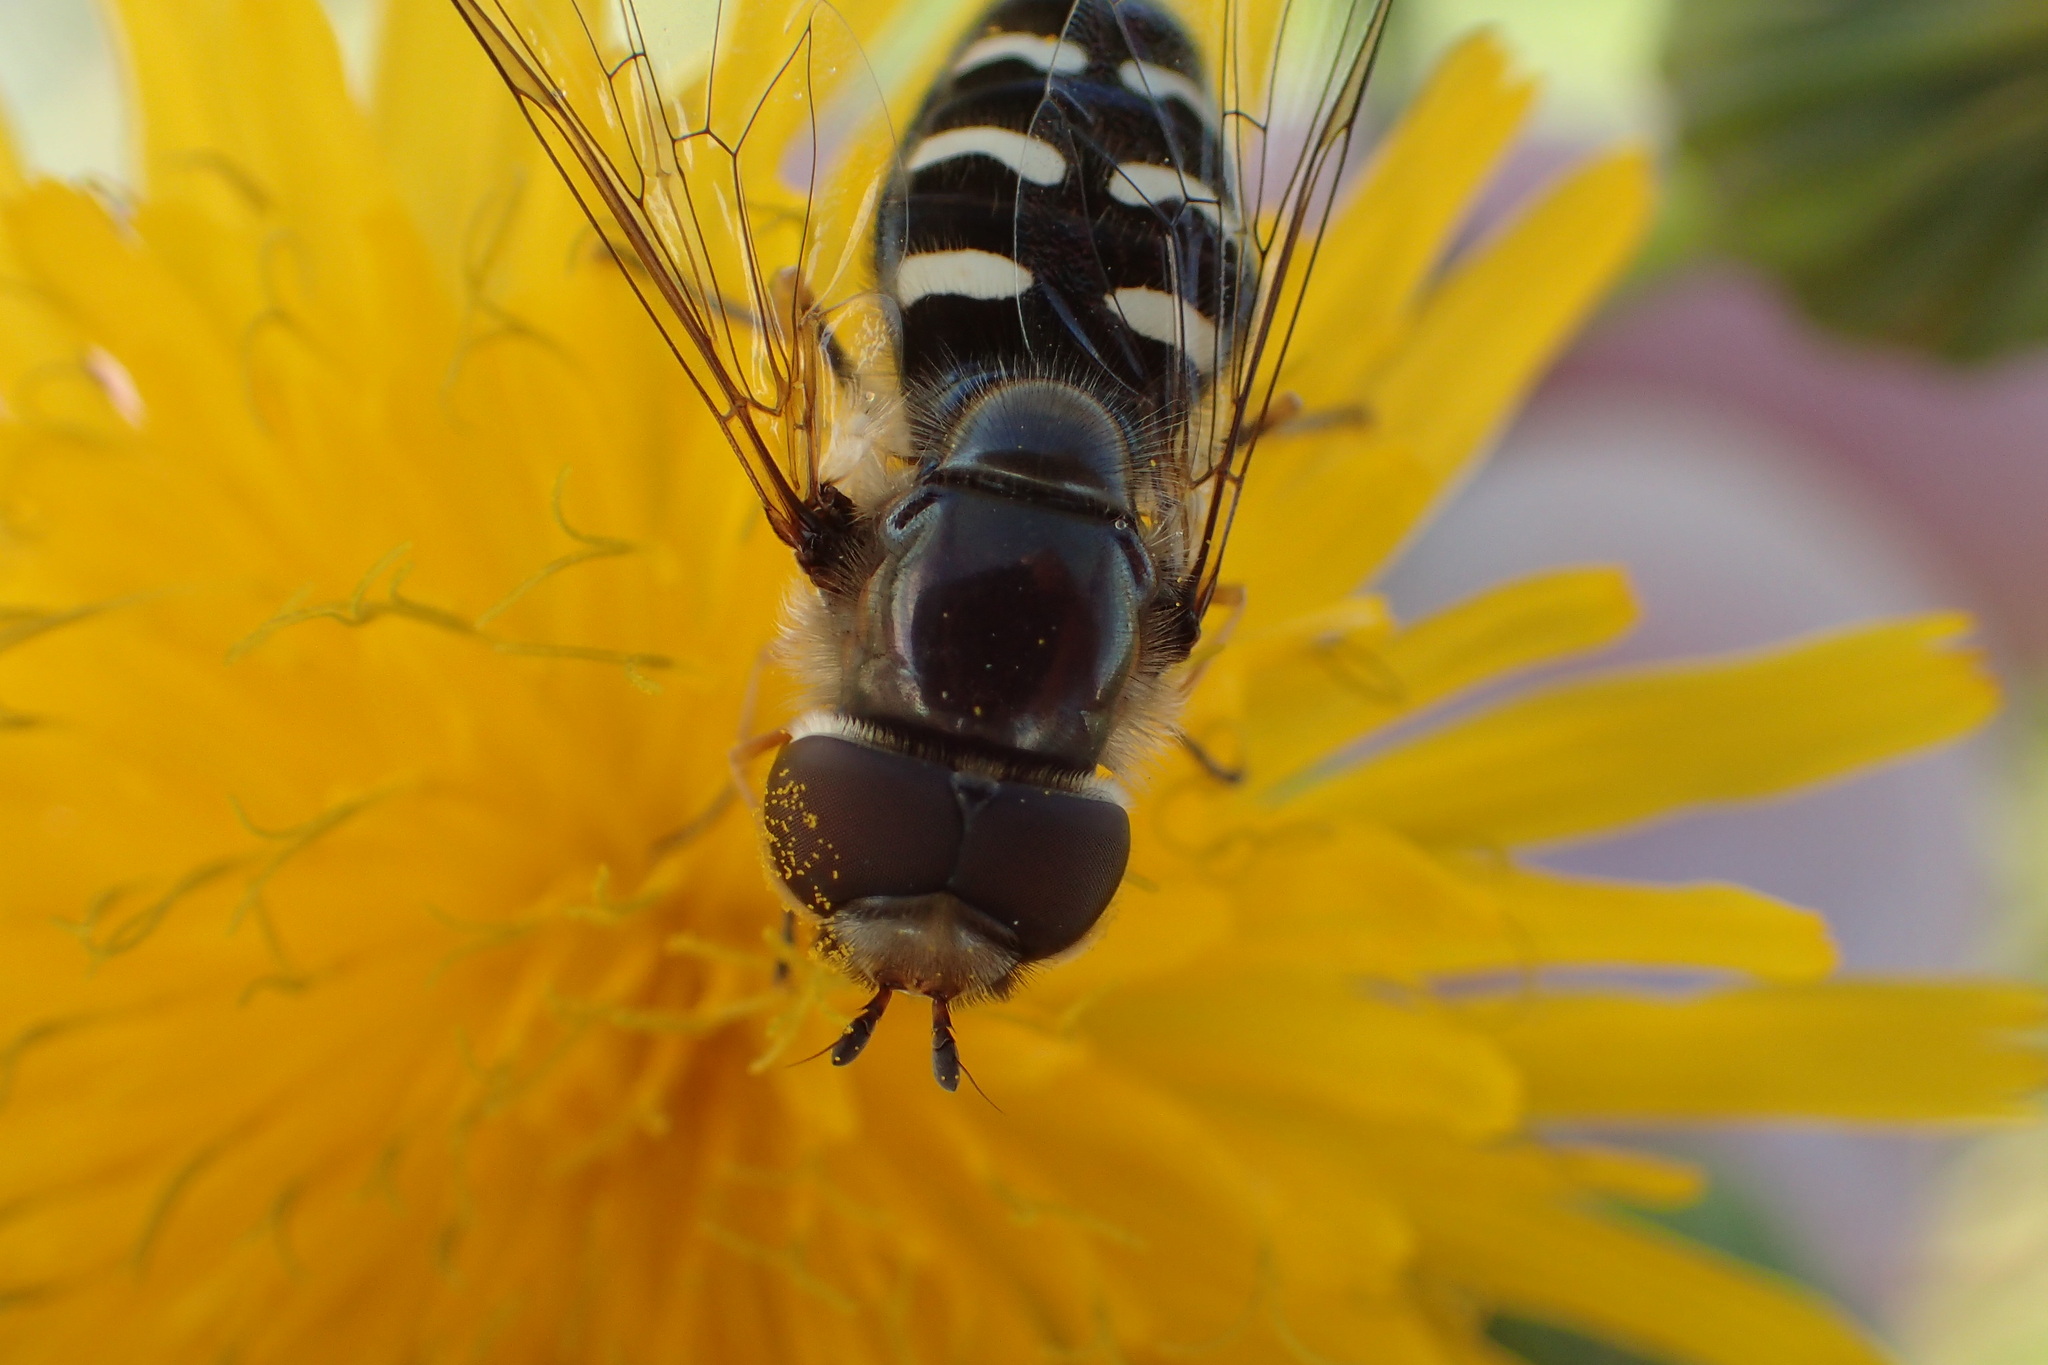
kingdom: Animalia
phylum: Arthropoda
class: Insecta
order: Diptera
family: Syrphidae
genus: Scaeva
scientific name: Scaeva affinis
